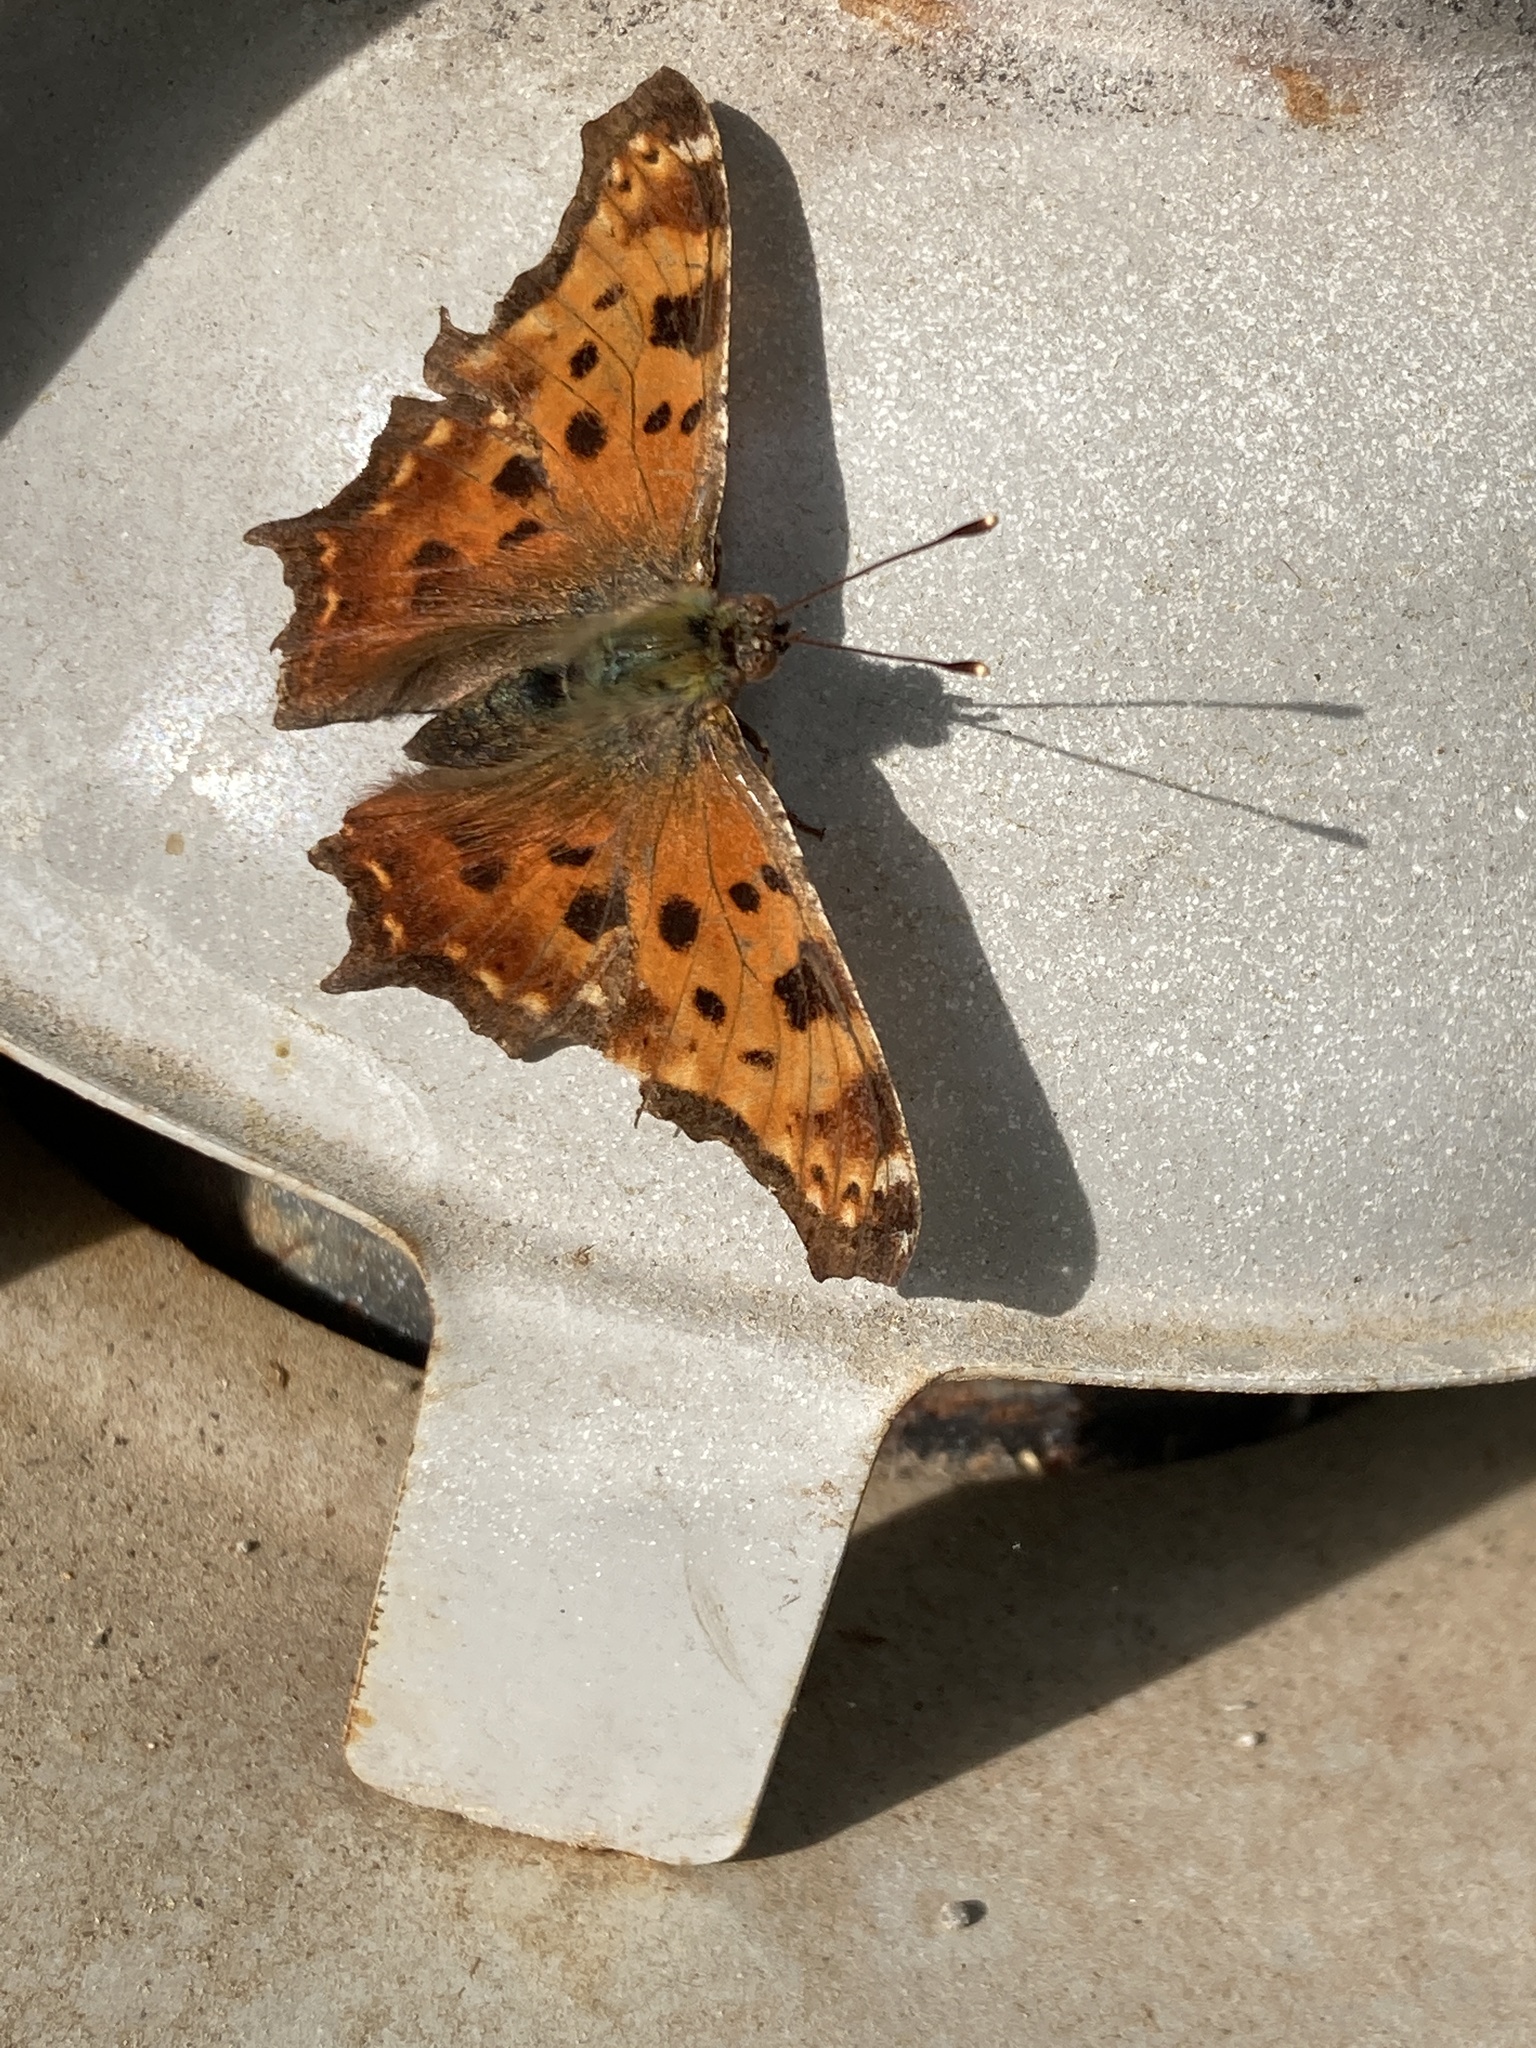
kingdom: Animalia
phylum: Arthropoda
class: Insecta
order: Lepidoptera
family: Nymphalidae
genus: Polygonia
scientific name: Polygonia comma
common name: Eastern comma
